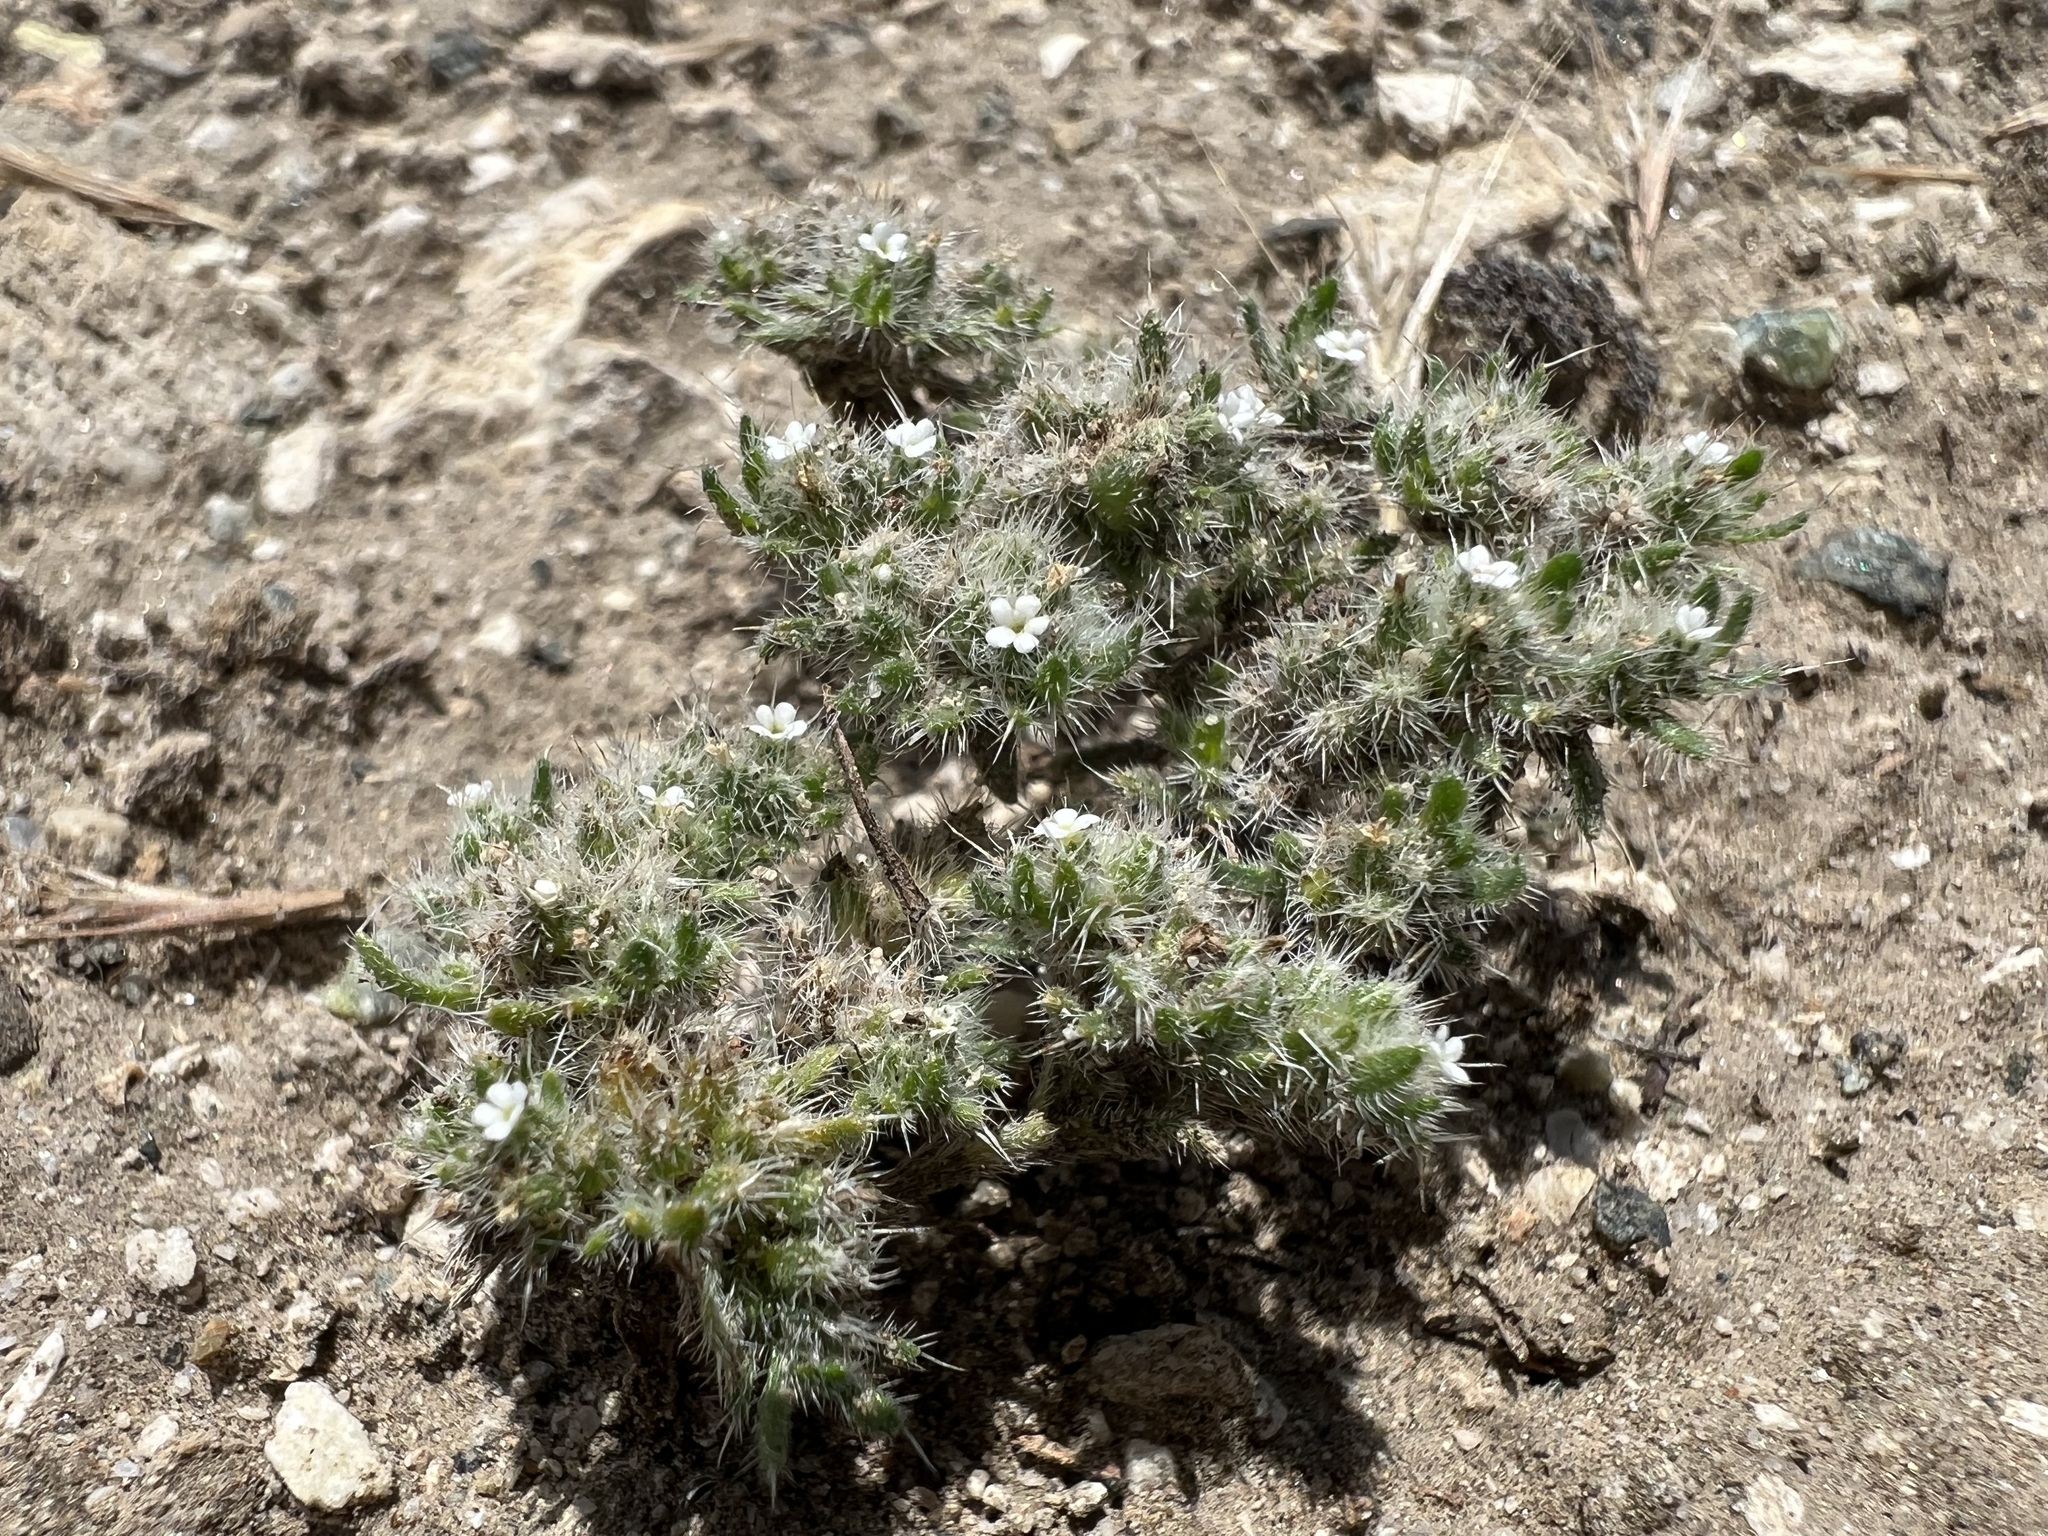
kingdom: Plantae
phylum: Tracheophyta
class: Magnoliopsida
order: Boraginales
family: Boraginaceae
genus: Greeneocharis
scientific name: Greeneocharis circumscissa
